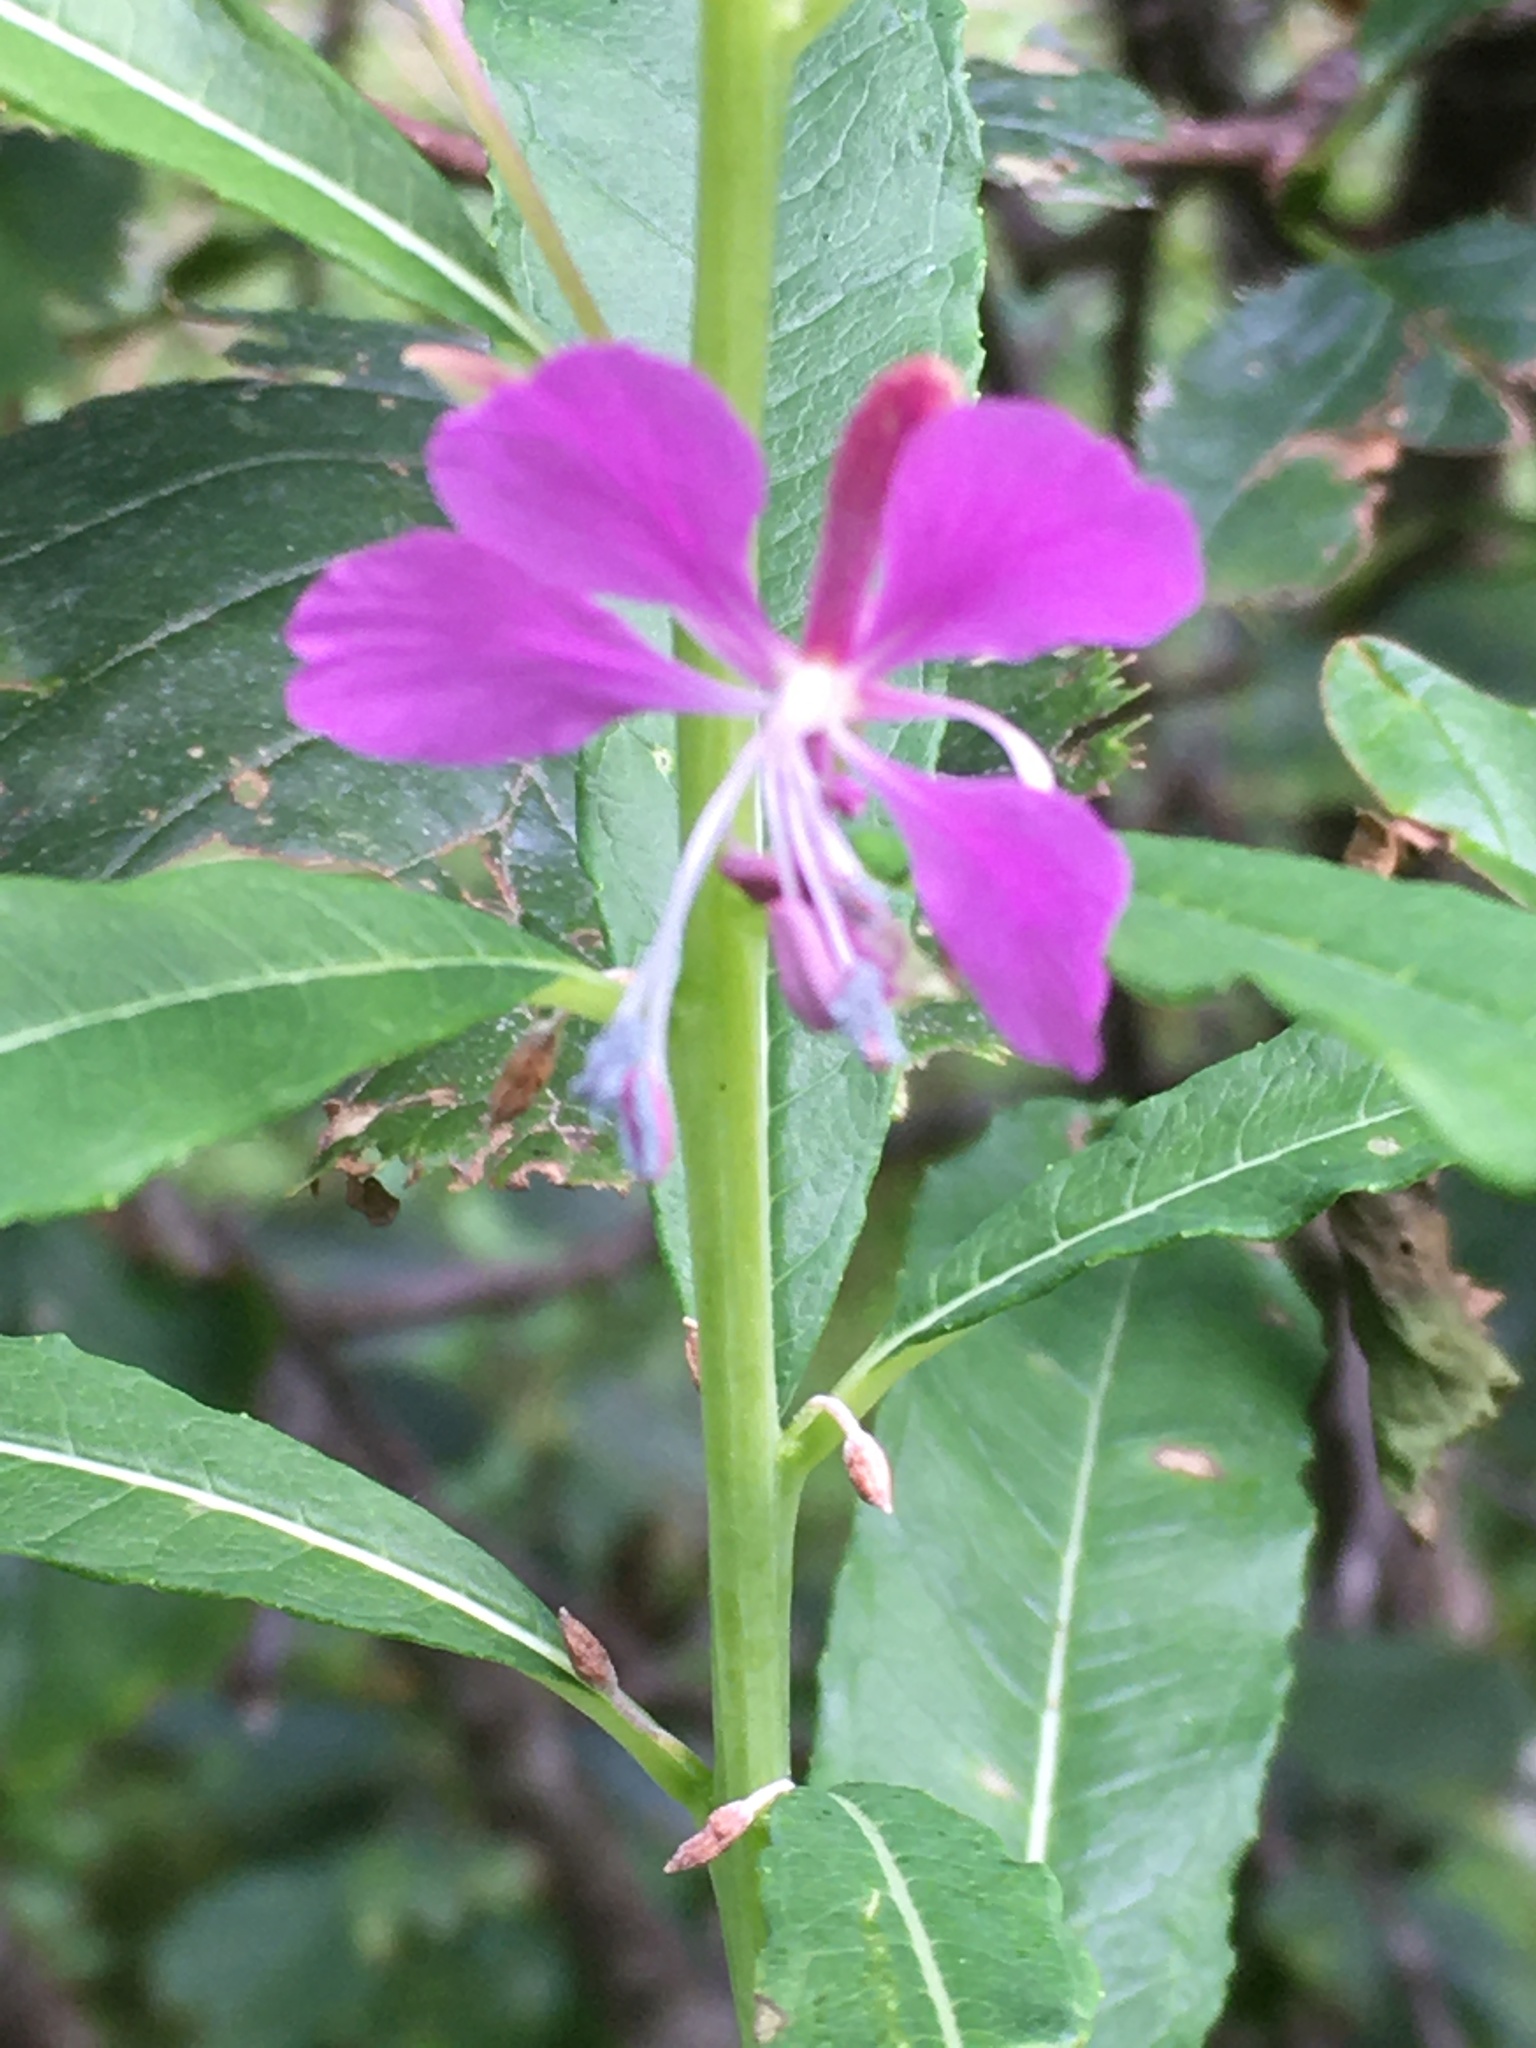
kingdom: Plantae
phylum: Tracheophyta
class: Magnoliopsida
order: Myrtales
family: Onagraceae
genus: Chamaenerion
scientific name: Chamaenerion angustifolium
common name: Fireweed
